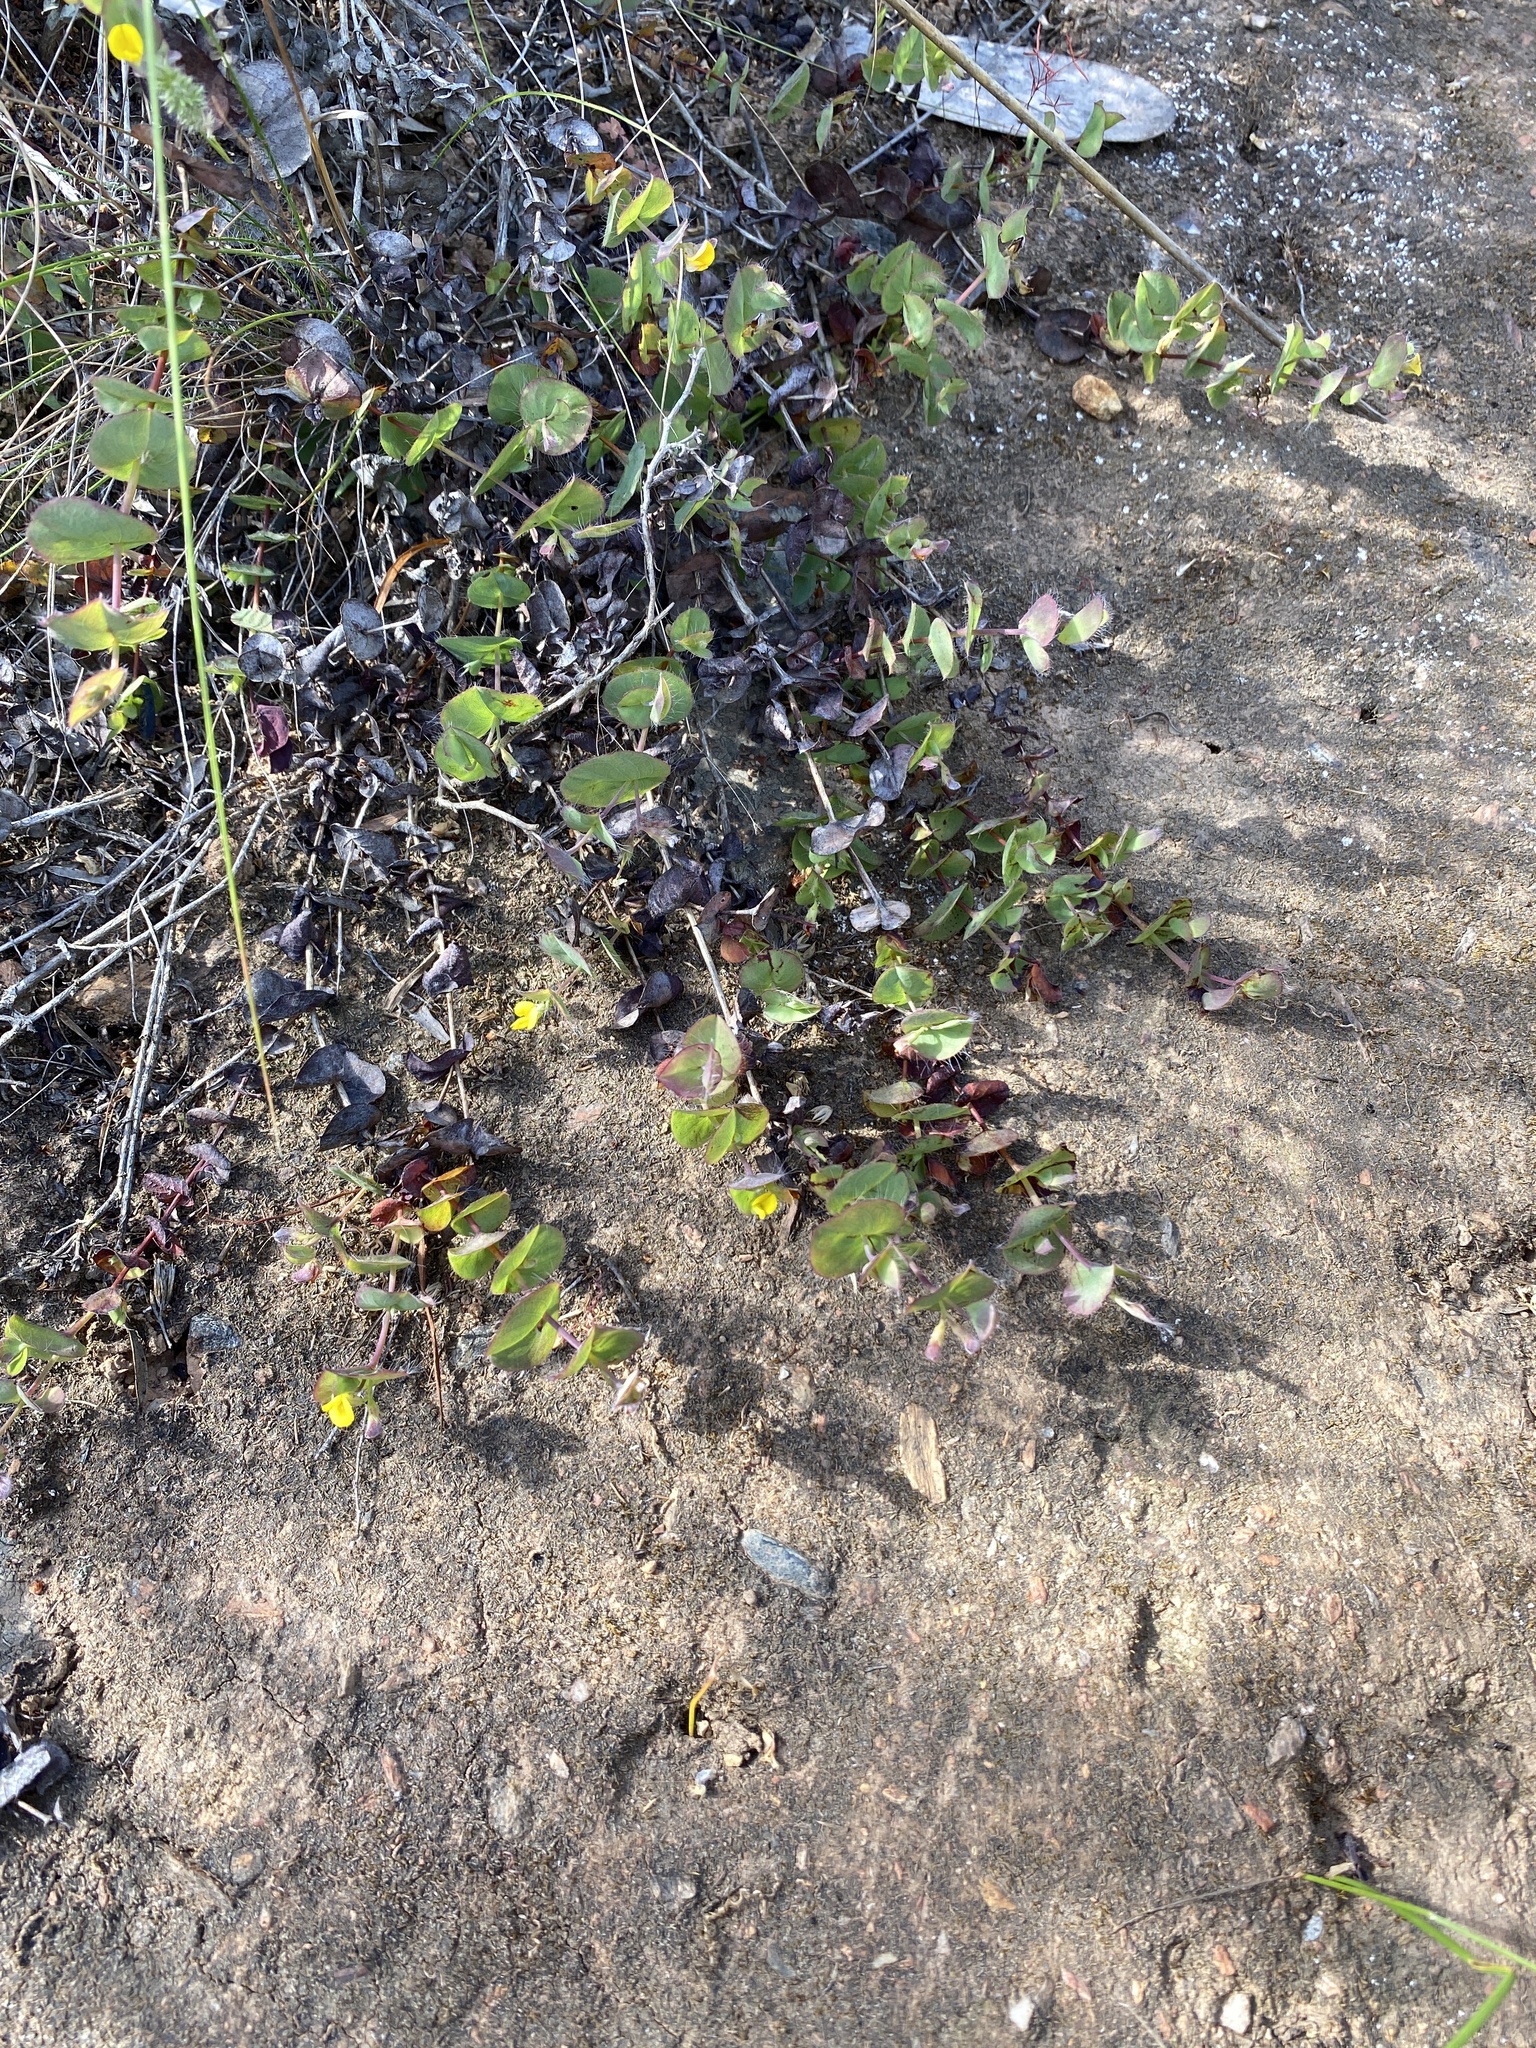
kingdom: Plantae
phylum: Tracheophyta
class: Magnoliopsida
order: Fabales
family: Fabaceae
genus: Aspalathus
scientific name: Aspalathus perforata
